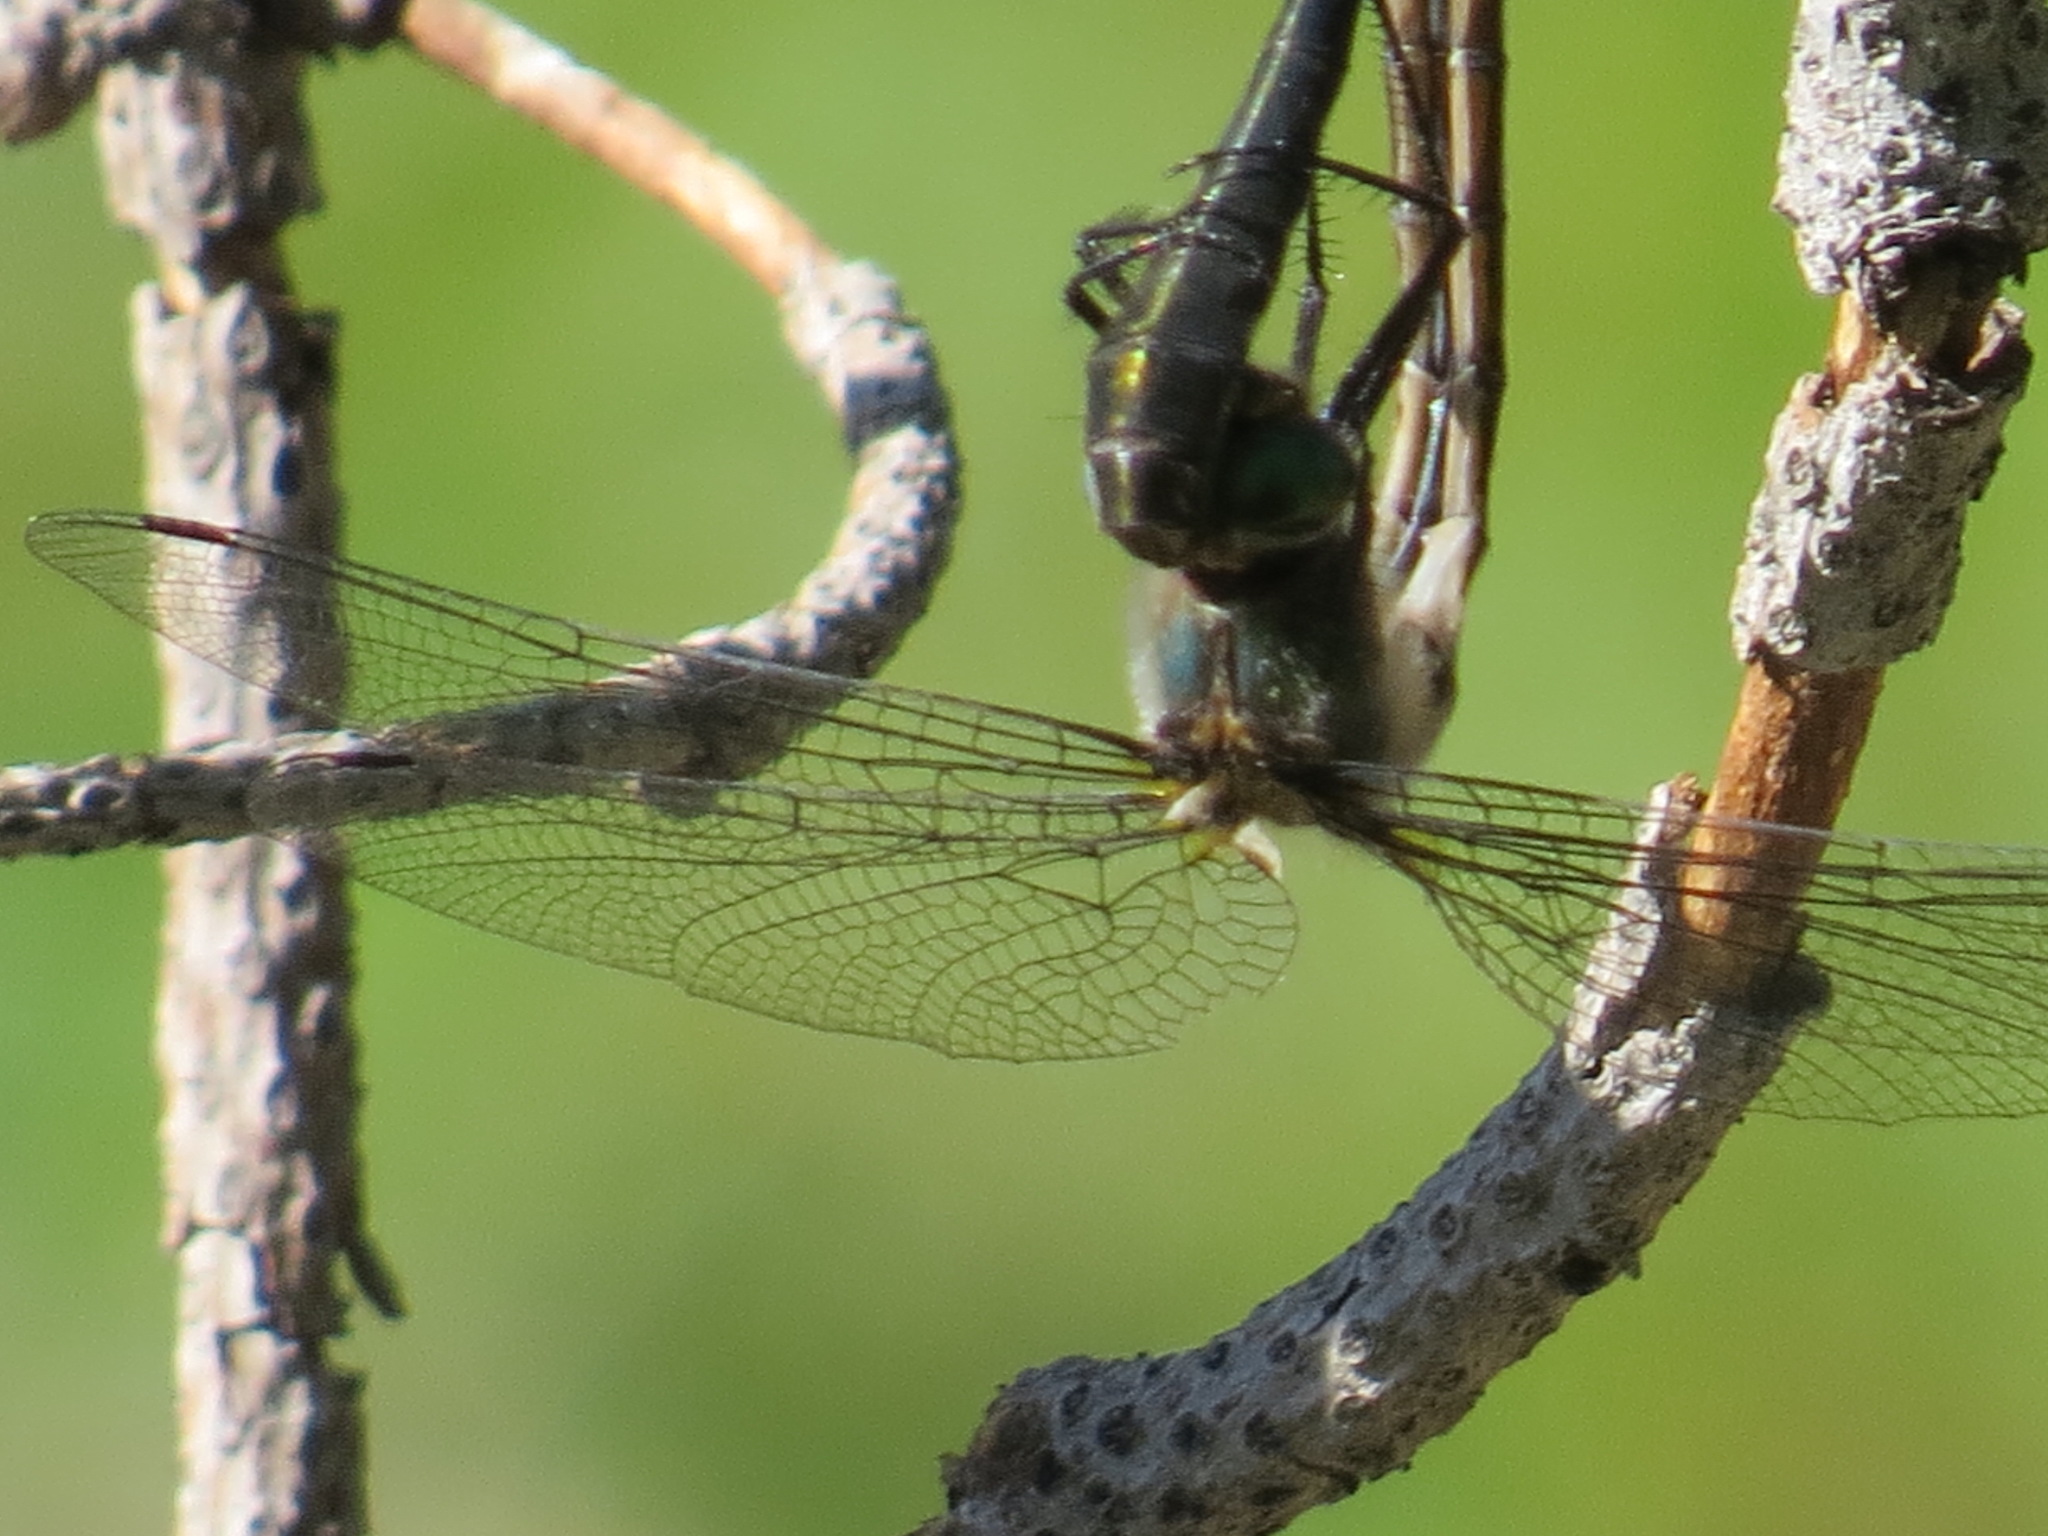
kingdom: Animalia
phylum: Arthropoda
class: Insecta
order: Odonata
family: Corduliidae
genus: Cordulia
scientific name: Cordulia shurtleffii
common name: American emerald
